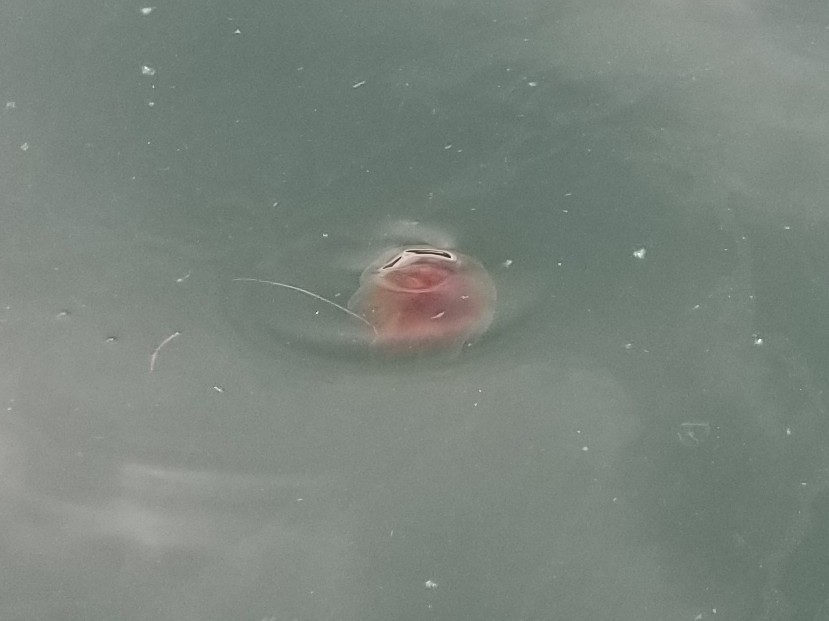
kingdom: Animalia
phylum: Cnidaria
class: Scyphozoa
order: Semaeostomeae
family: Cyaneidae
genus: Cyanea
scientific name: Cyanea ferruginea
